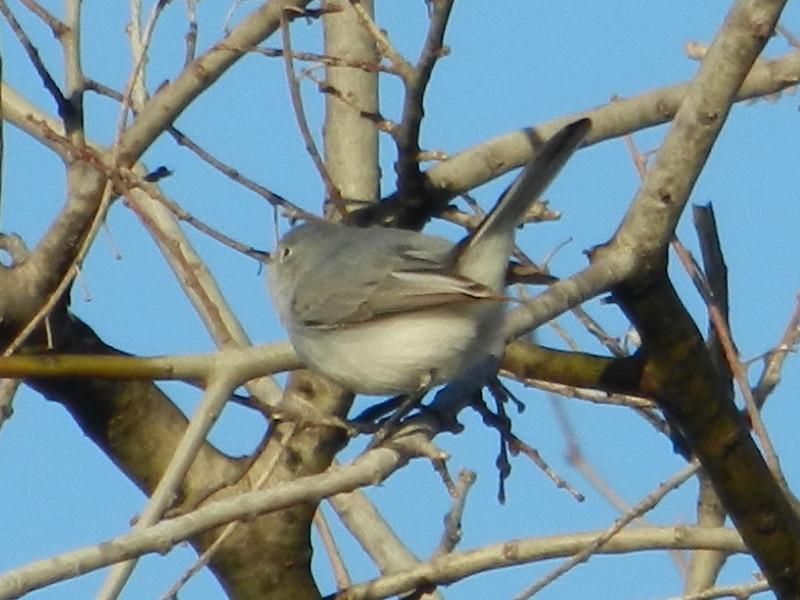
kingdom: Animalia
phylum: Chordata
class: Aves
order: Passeriformes
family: Polioptilidae
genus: Polioptila
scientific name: Polioptila caerulea
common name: Blue-gray gnatcatcher
